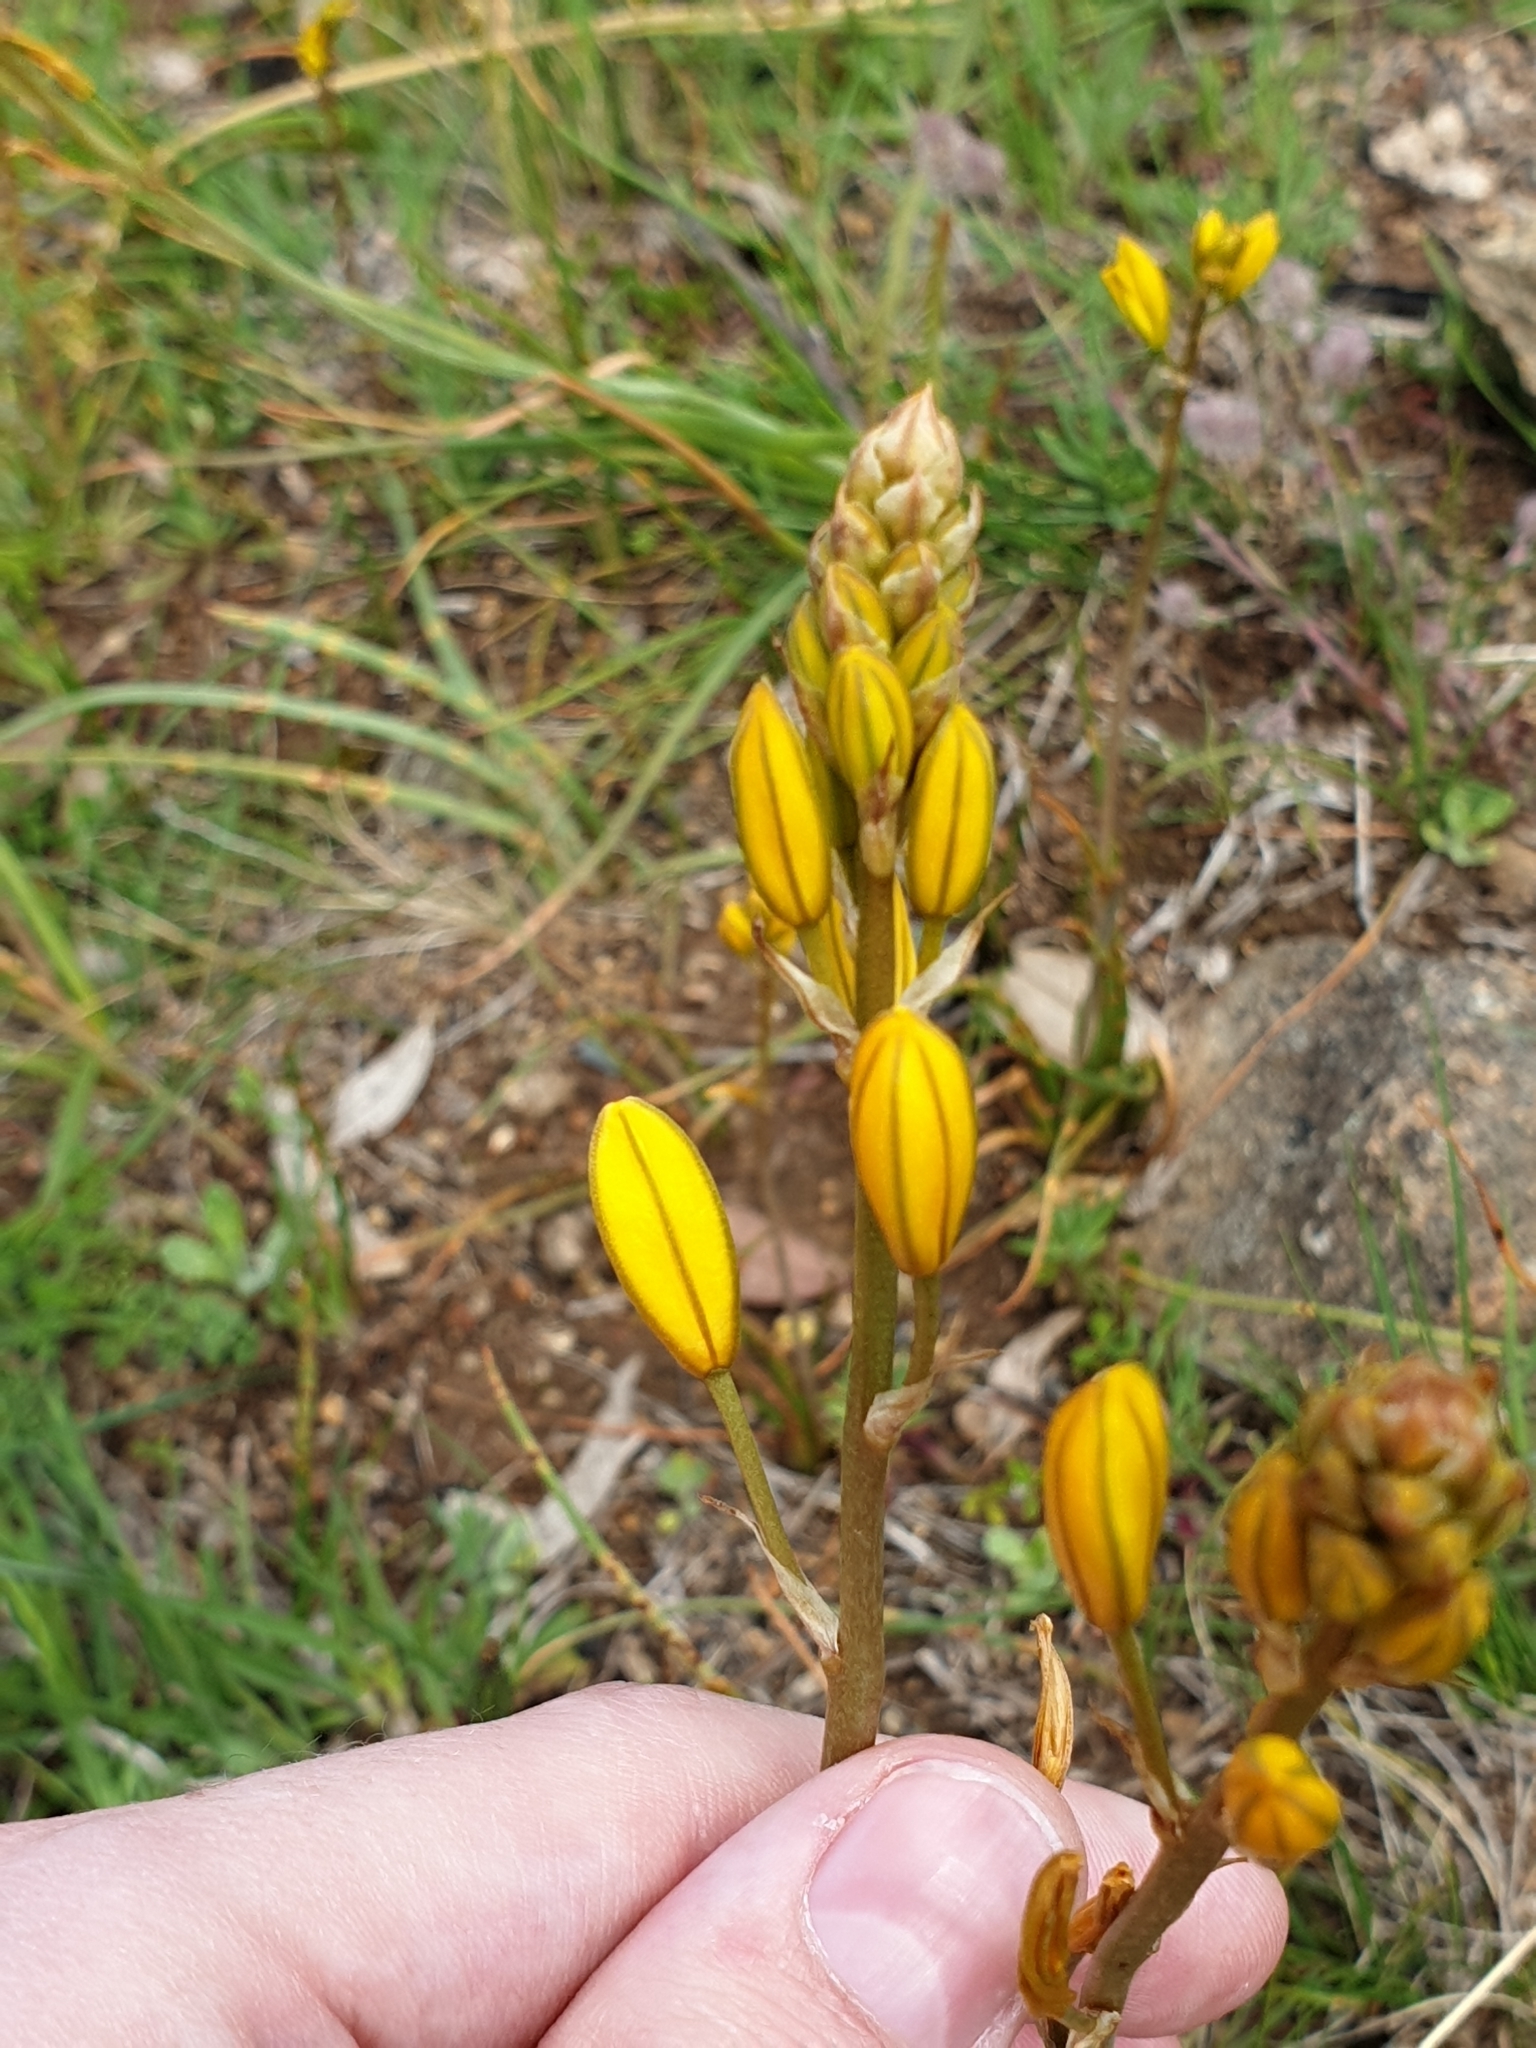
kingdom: Plantae
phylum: Tracheophyta
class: Liliopsida
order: Asparagales
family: Asphodelaceae
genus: Bulbine
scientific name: Bulbine bulbosa
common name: Golden-lily
